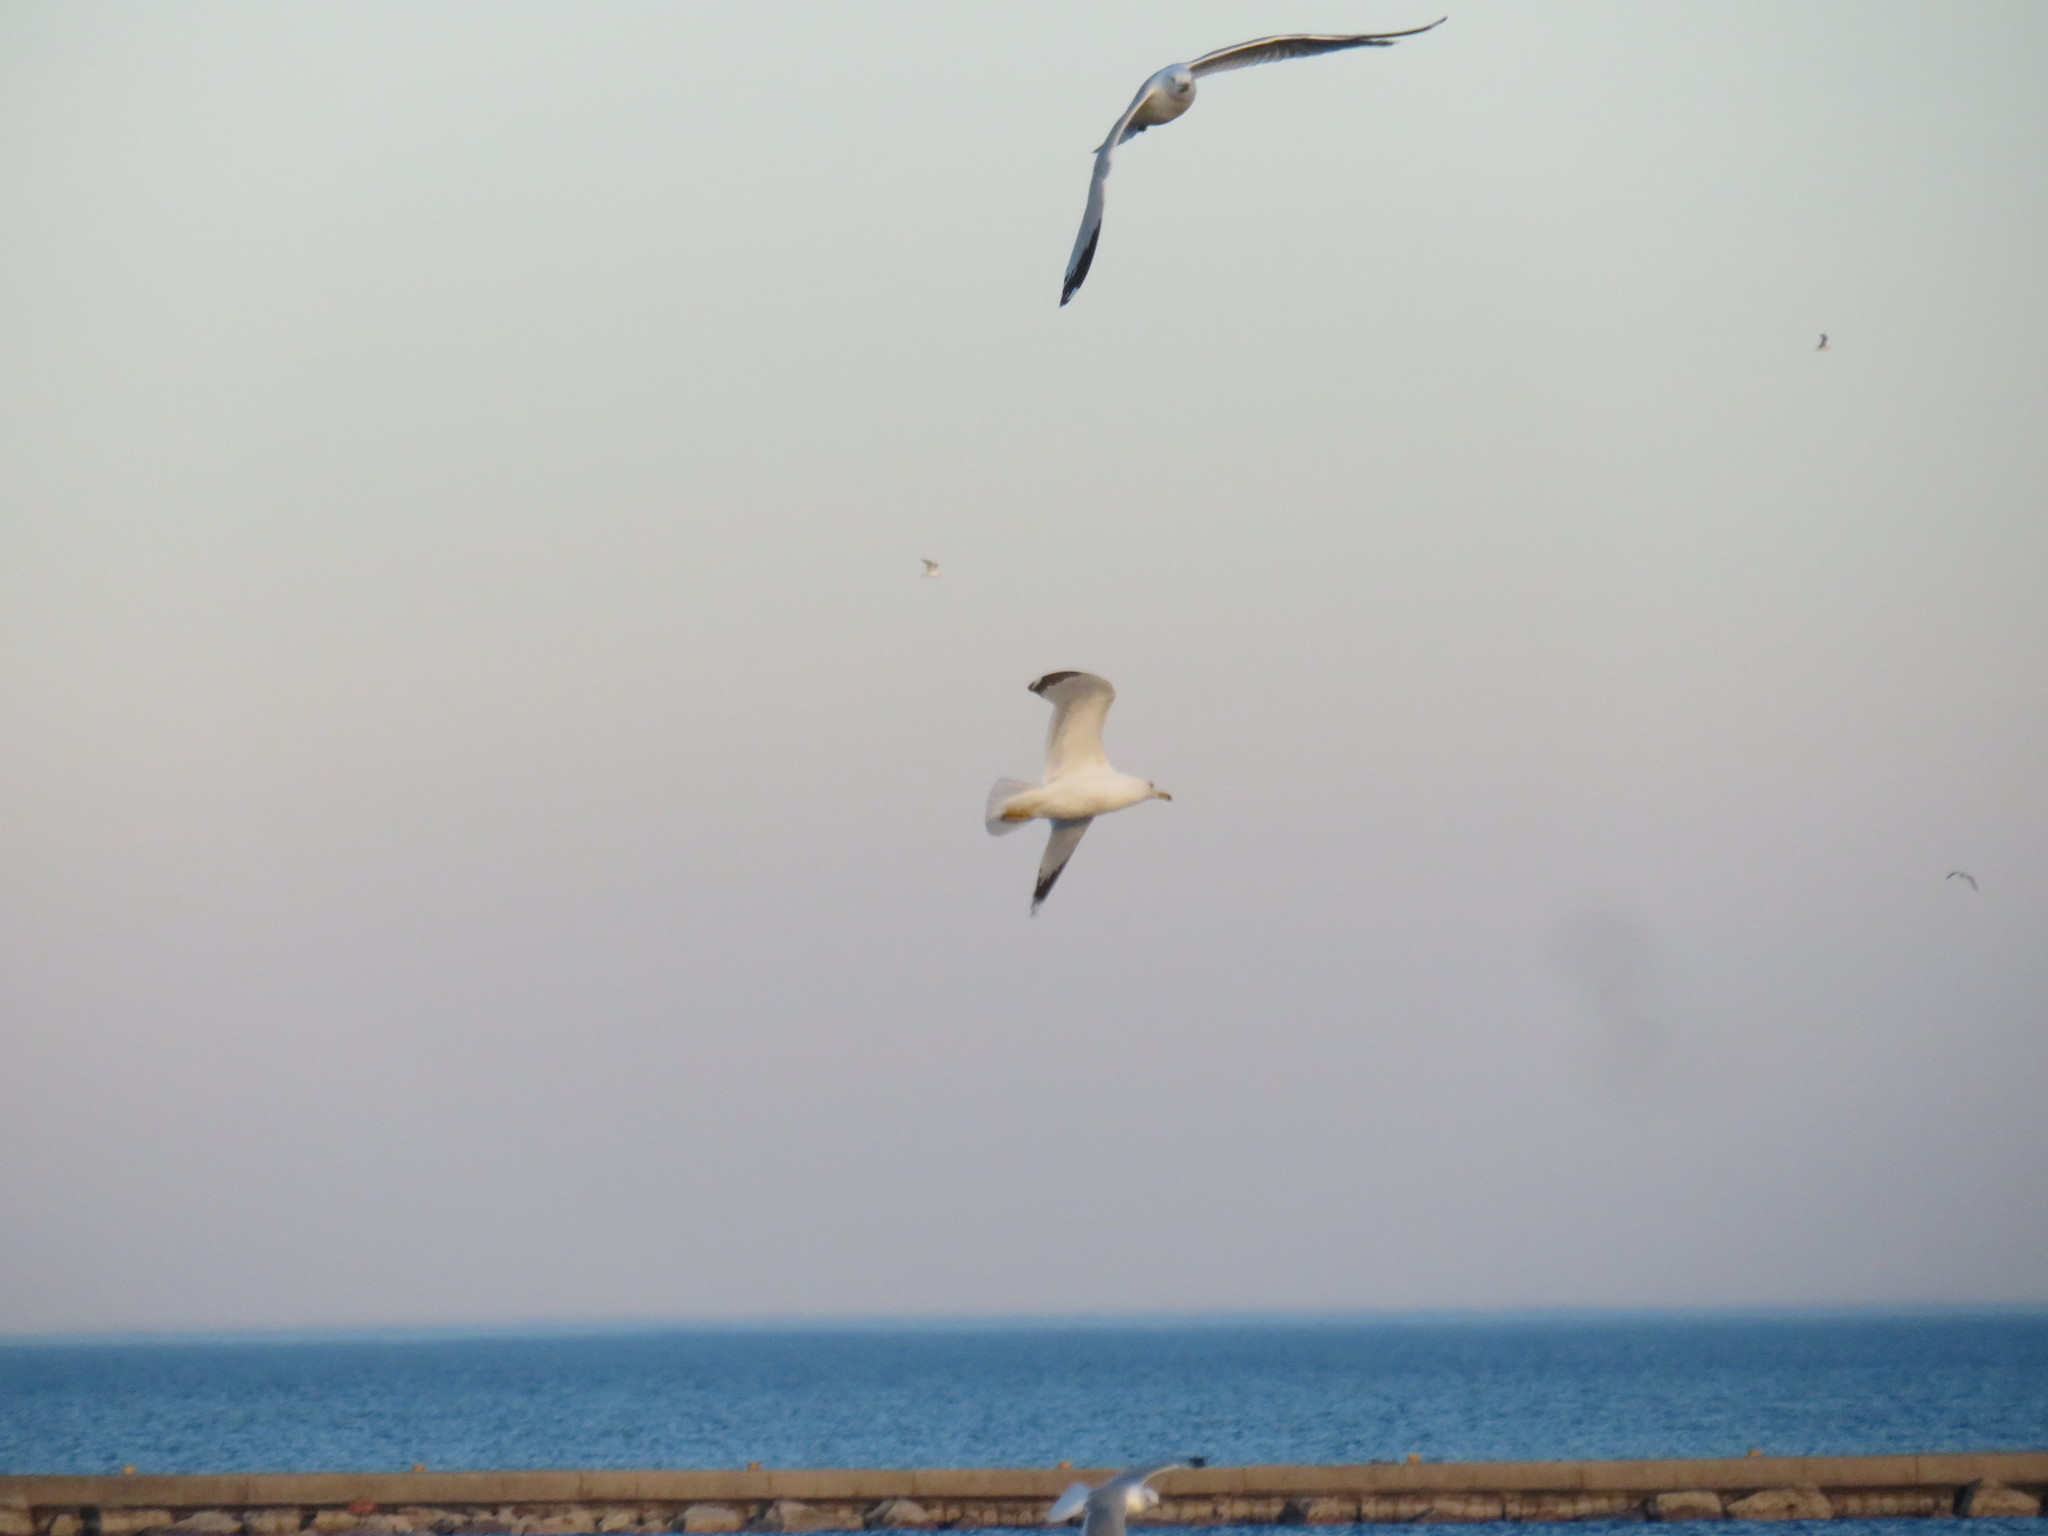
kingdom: Animalia
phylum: Chordata
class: Aves
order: Charadriiformes
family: Laridae
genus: Larus
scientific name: Larus delawarensis
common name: Ring-billed gull
